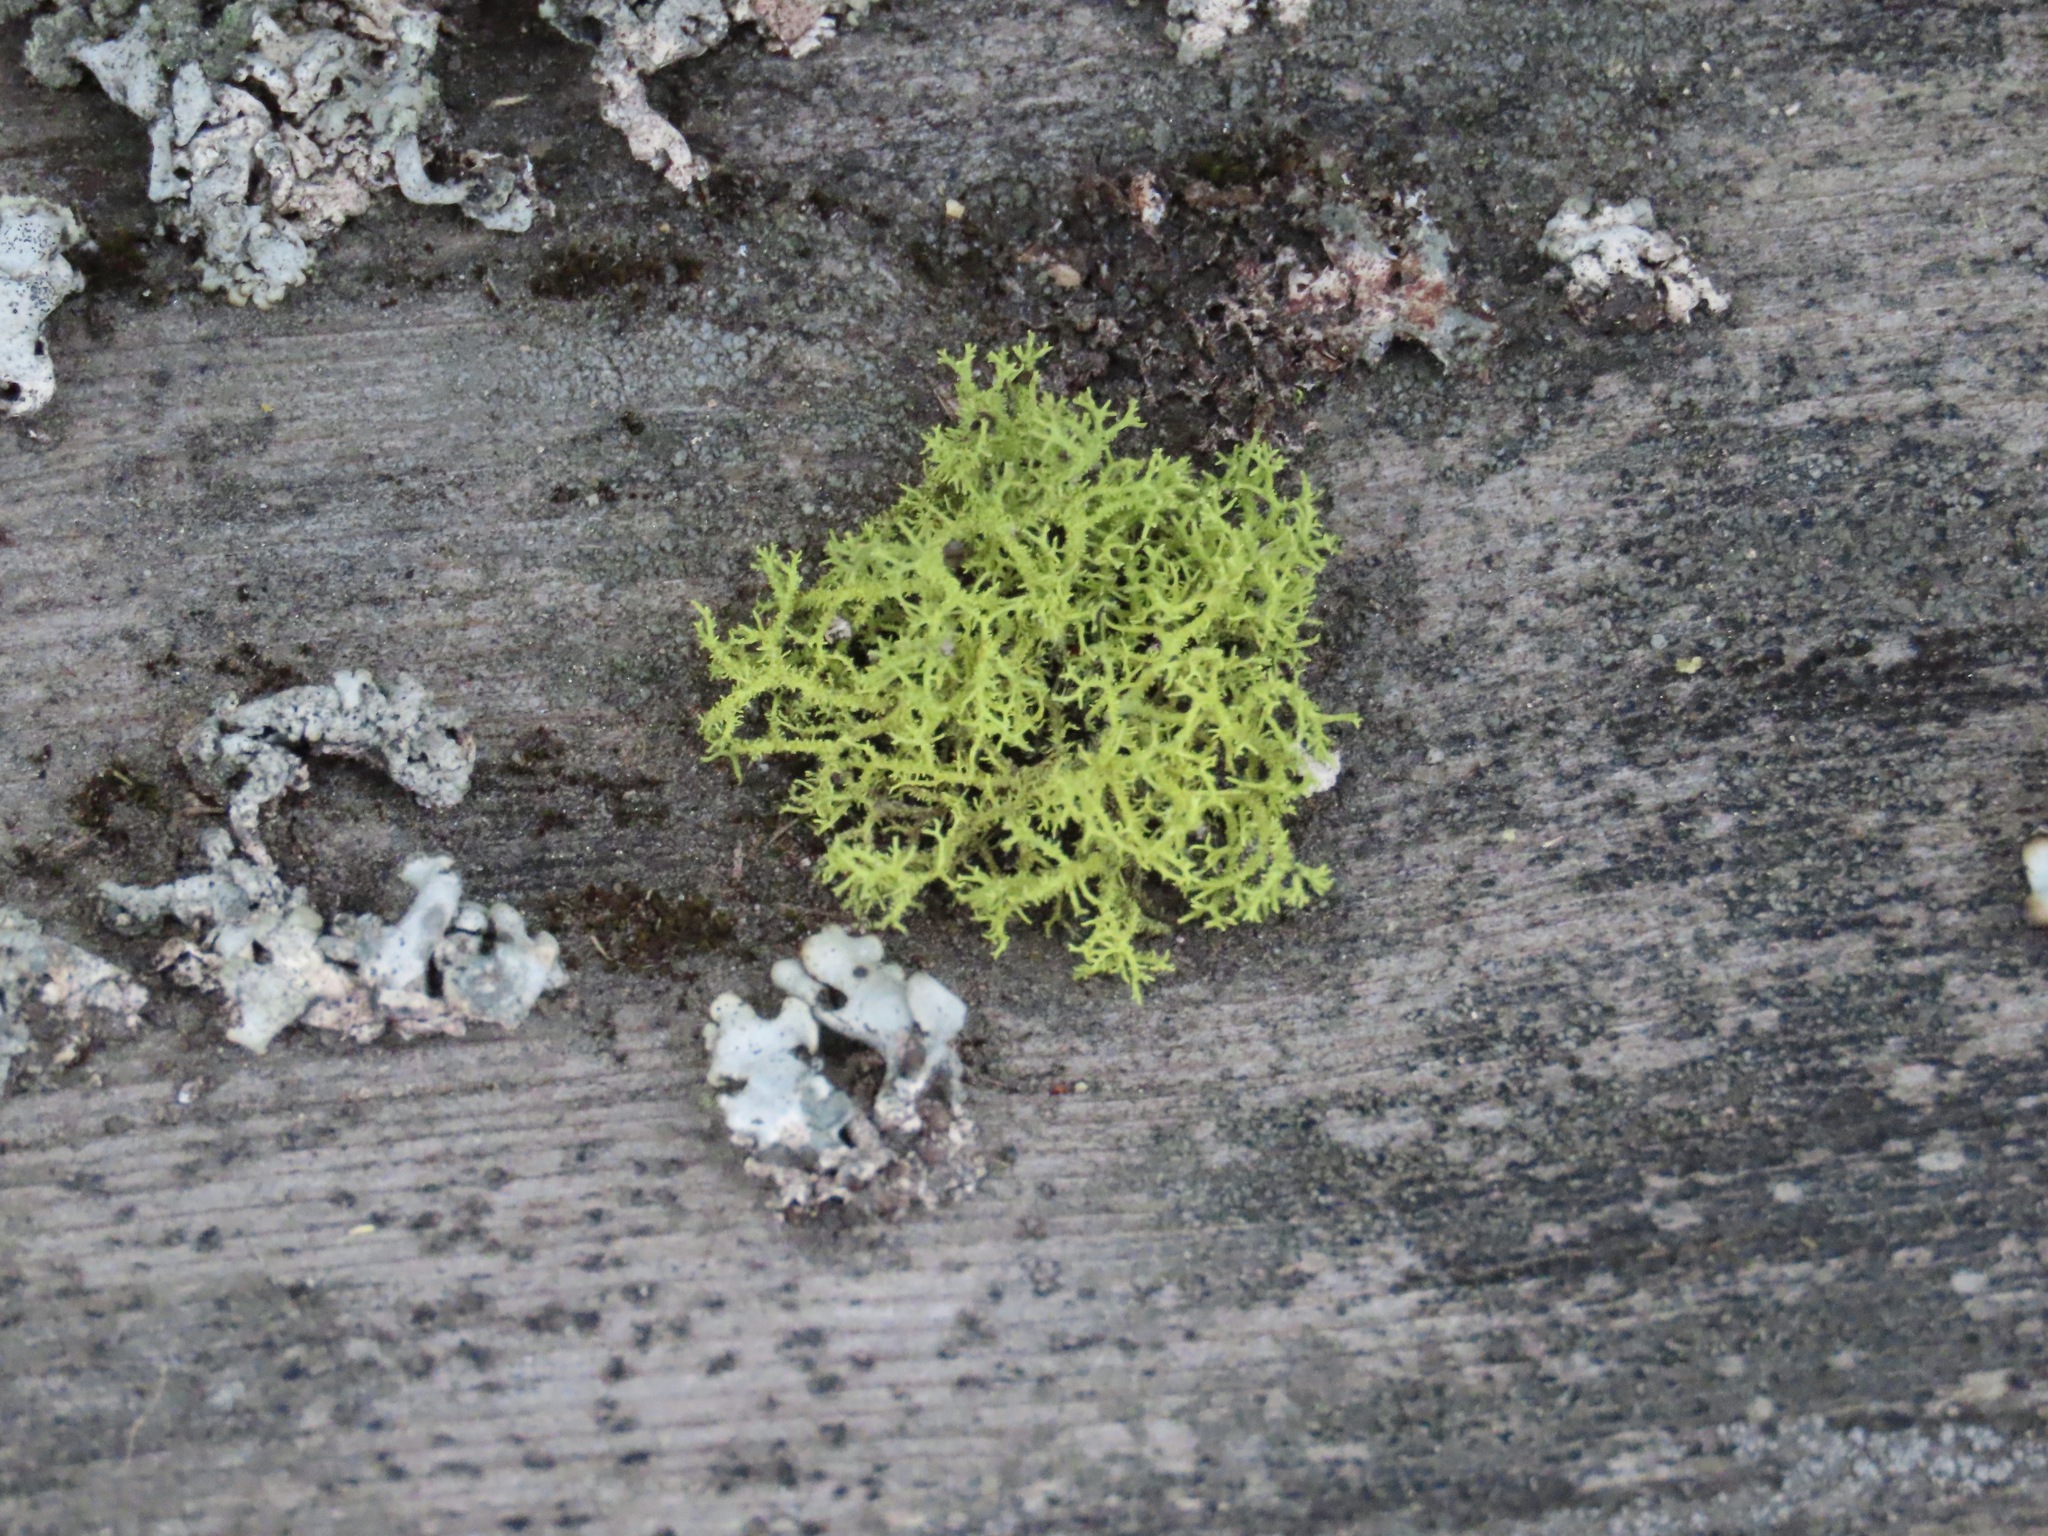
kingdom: Fungi
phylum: Ascomycota
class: Lecanoromycetes
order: Lecanorales
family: Parmeliaceae
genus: Letharia
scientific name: Letharia vulpina
